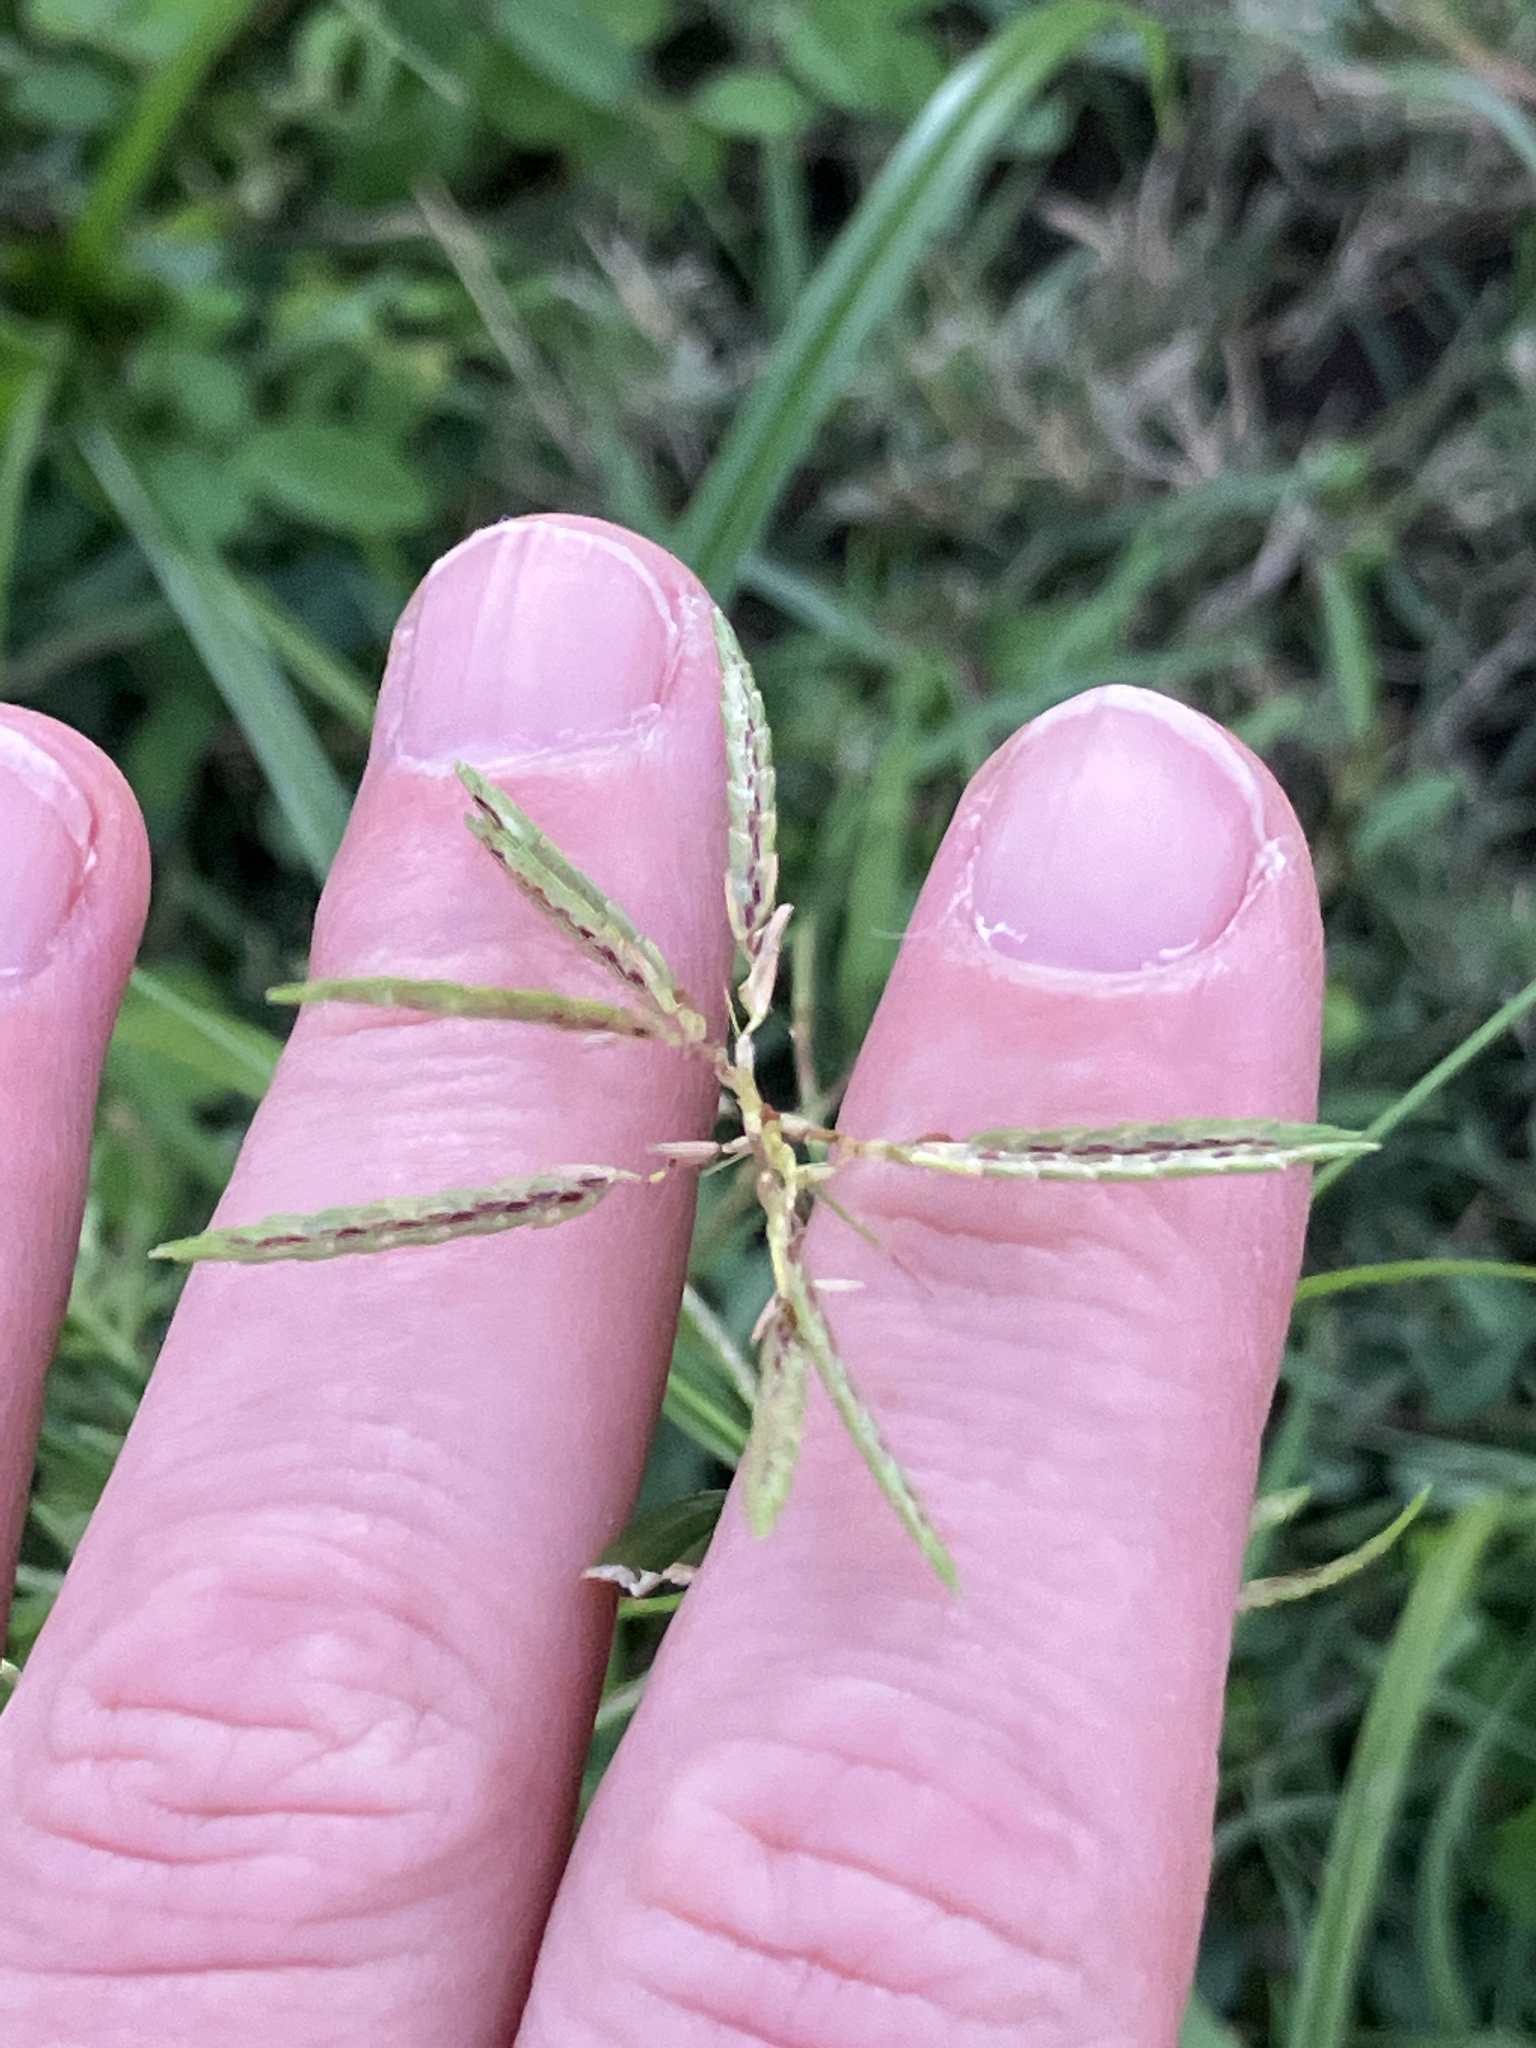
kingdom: Plantae
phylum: Tracheophyta
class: Liliopsida
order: Poales
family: Cyperaceae
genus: Cyperus
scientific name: Cyperus sphacelatus
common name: Roadside flatsedge
